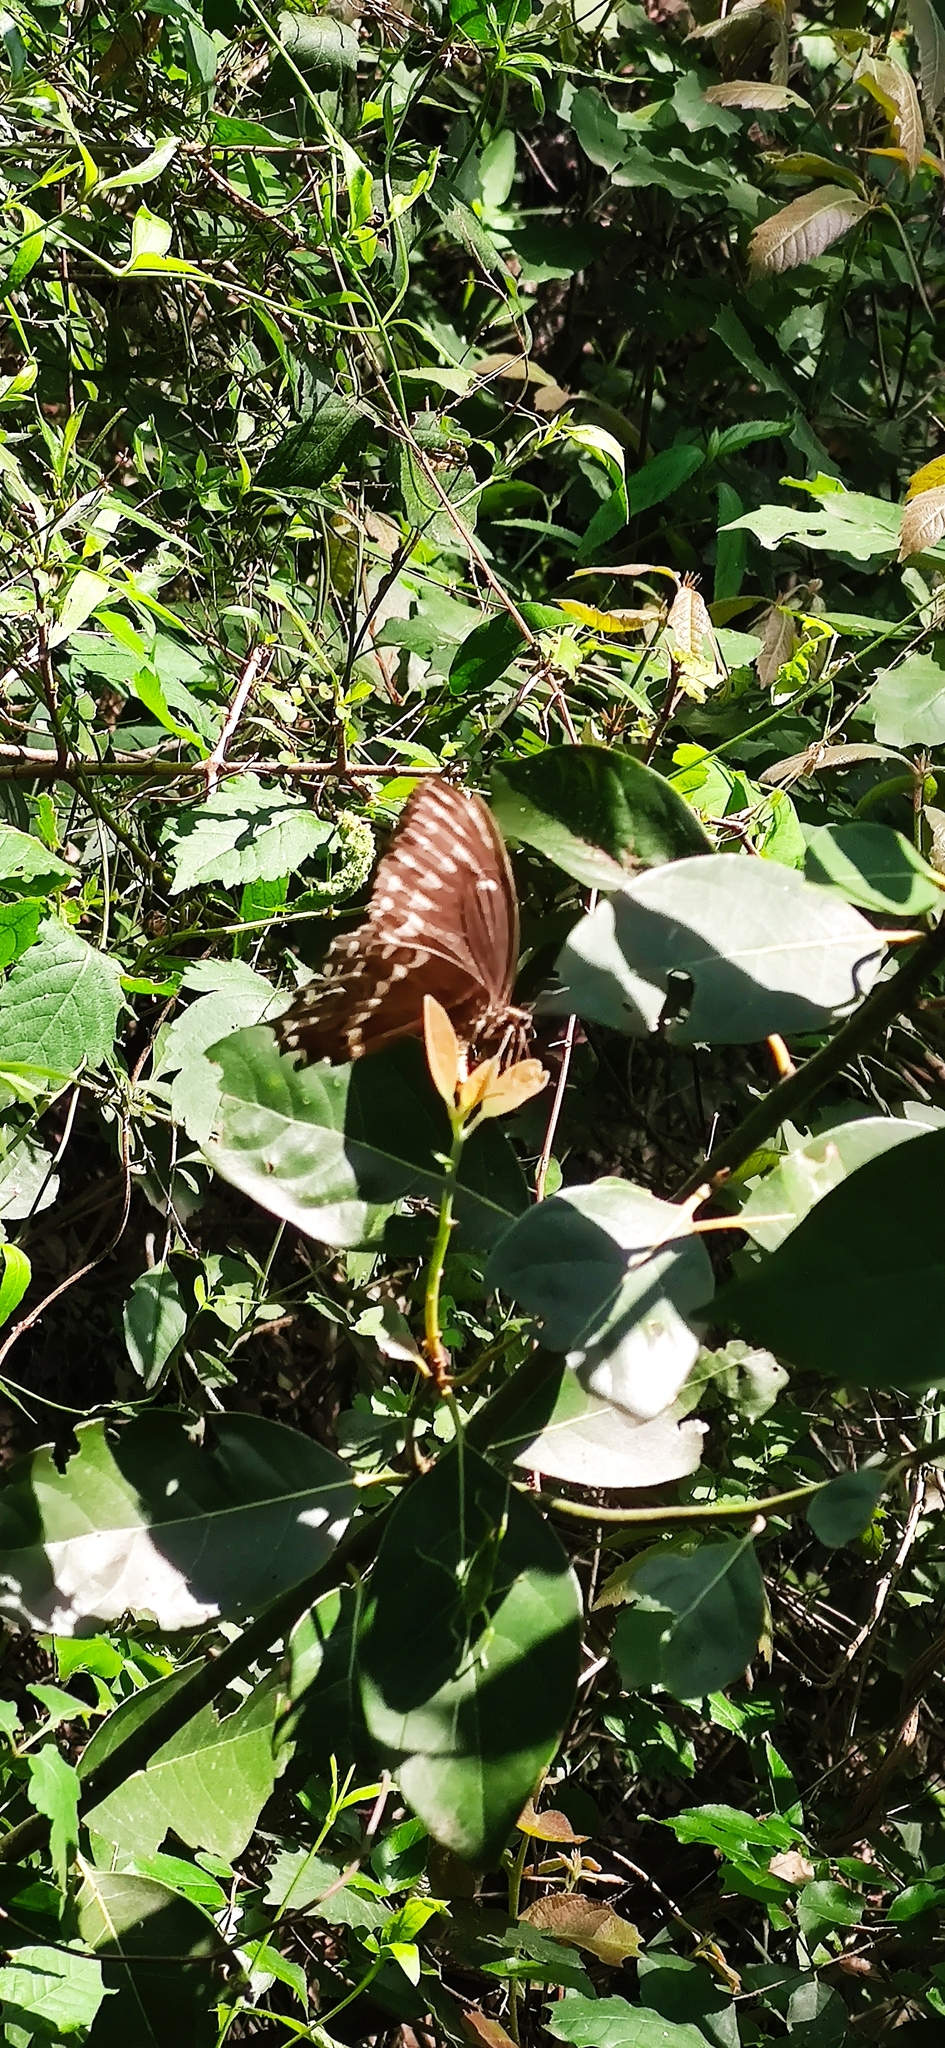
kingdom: Animalia
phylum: Arthropoda
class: Insecta
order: Lepidoptera
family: Papilionidae
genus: Papilio
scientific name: Papilio palamedes
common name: Palamedes swallowtail
